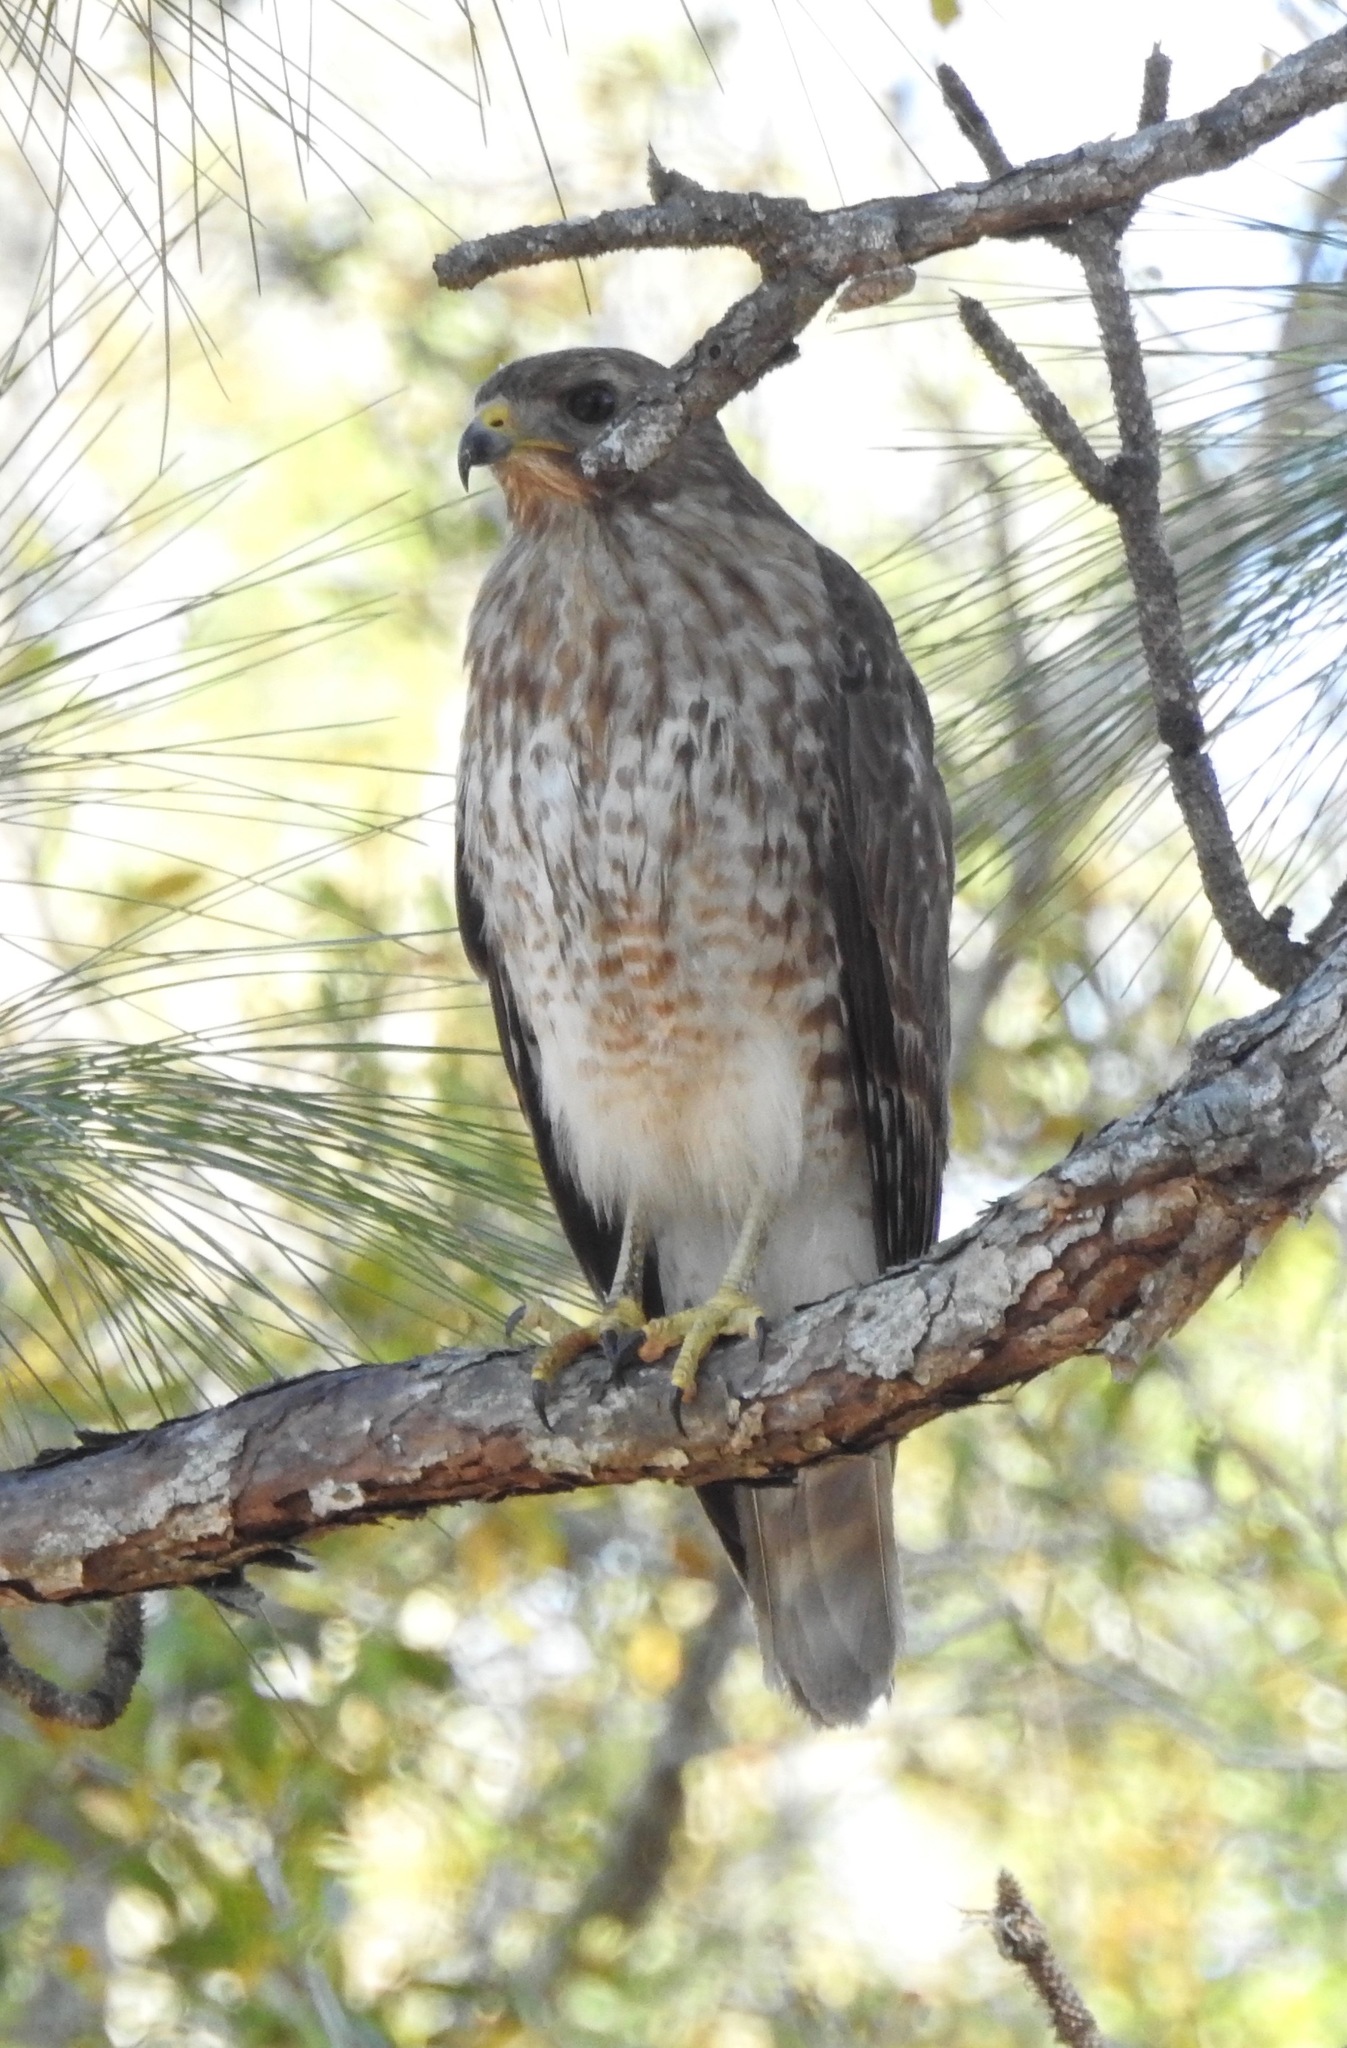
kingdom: Animalia
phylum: Chordata
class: Aves
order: Accipitriformes
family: Accipitridae
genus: Buteo
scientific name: Buteo lineatus
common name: Red-shouldered hawk
